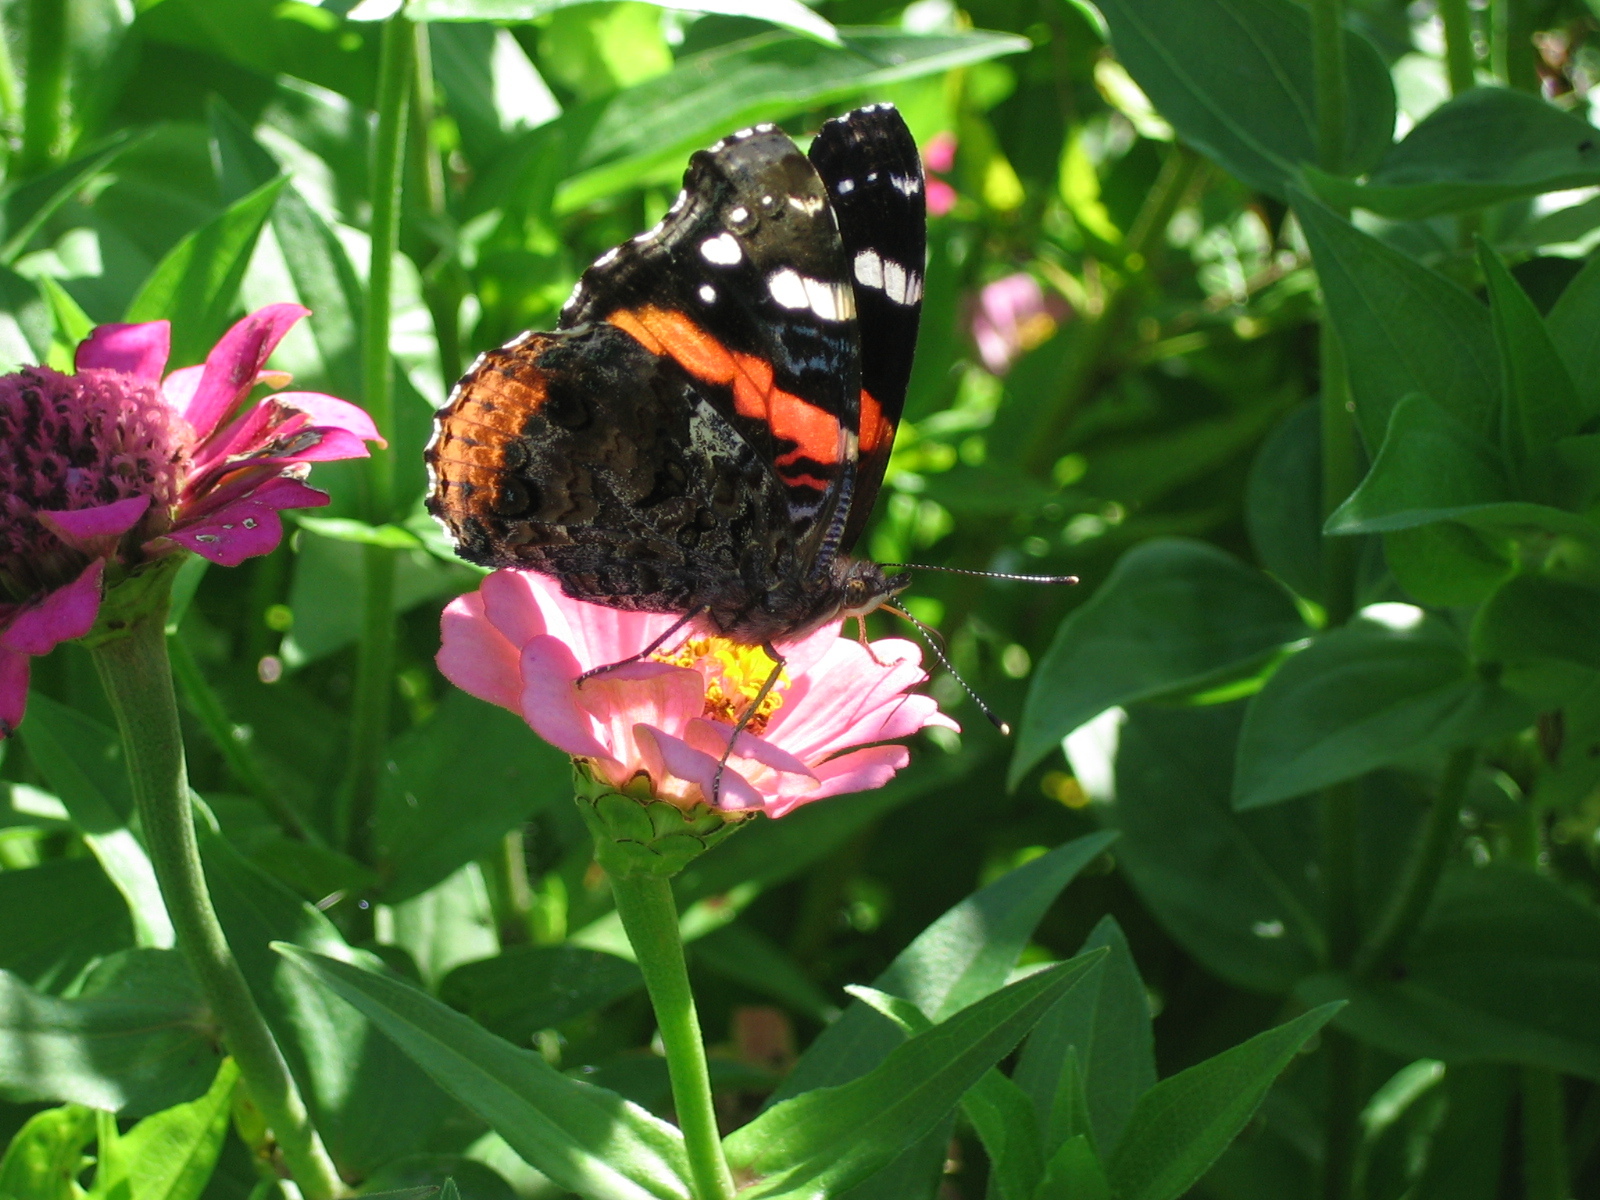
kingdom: Animalia
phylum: Arthropoda
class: Insecta
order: Lepidoptera
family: Nymphalidae
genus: Vanessa
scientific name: Vanessa atalanta
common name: Red admiral
